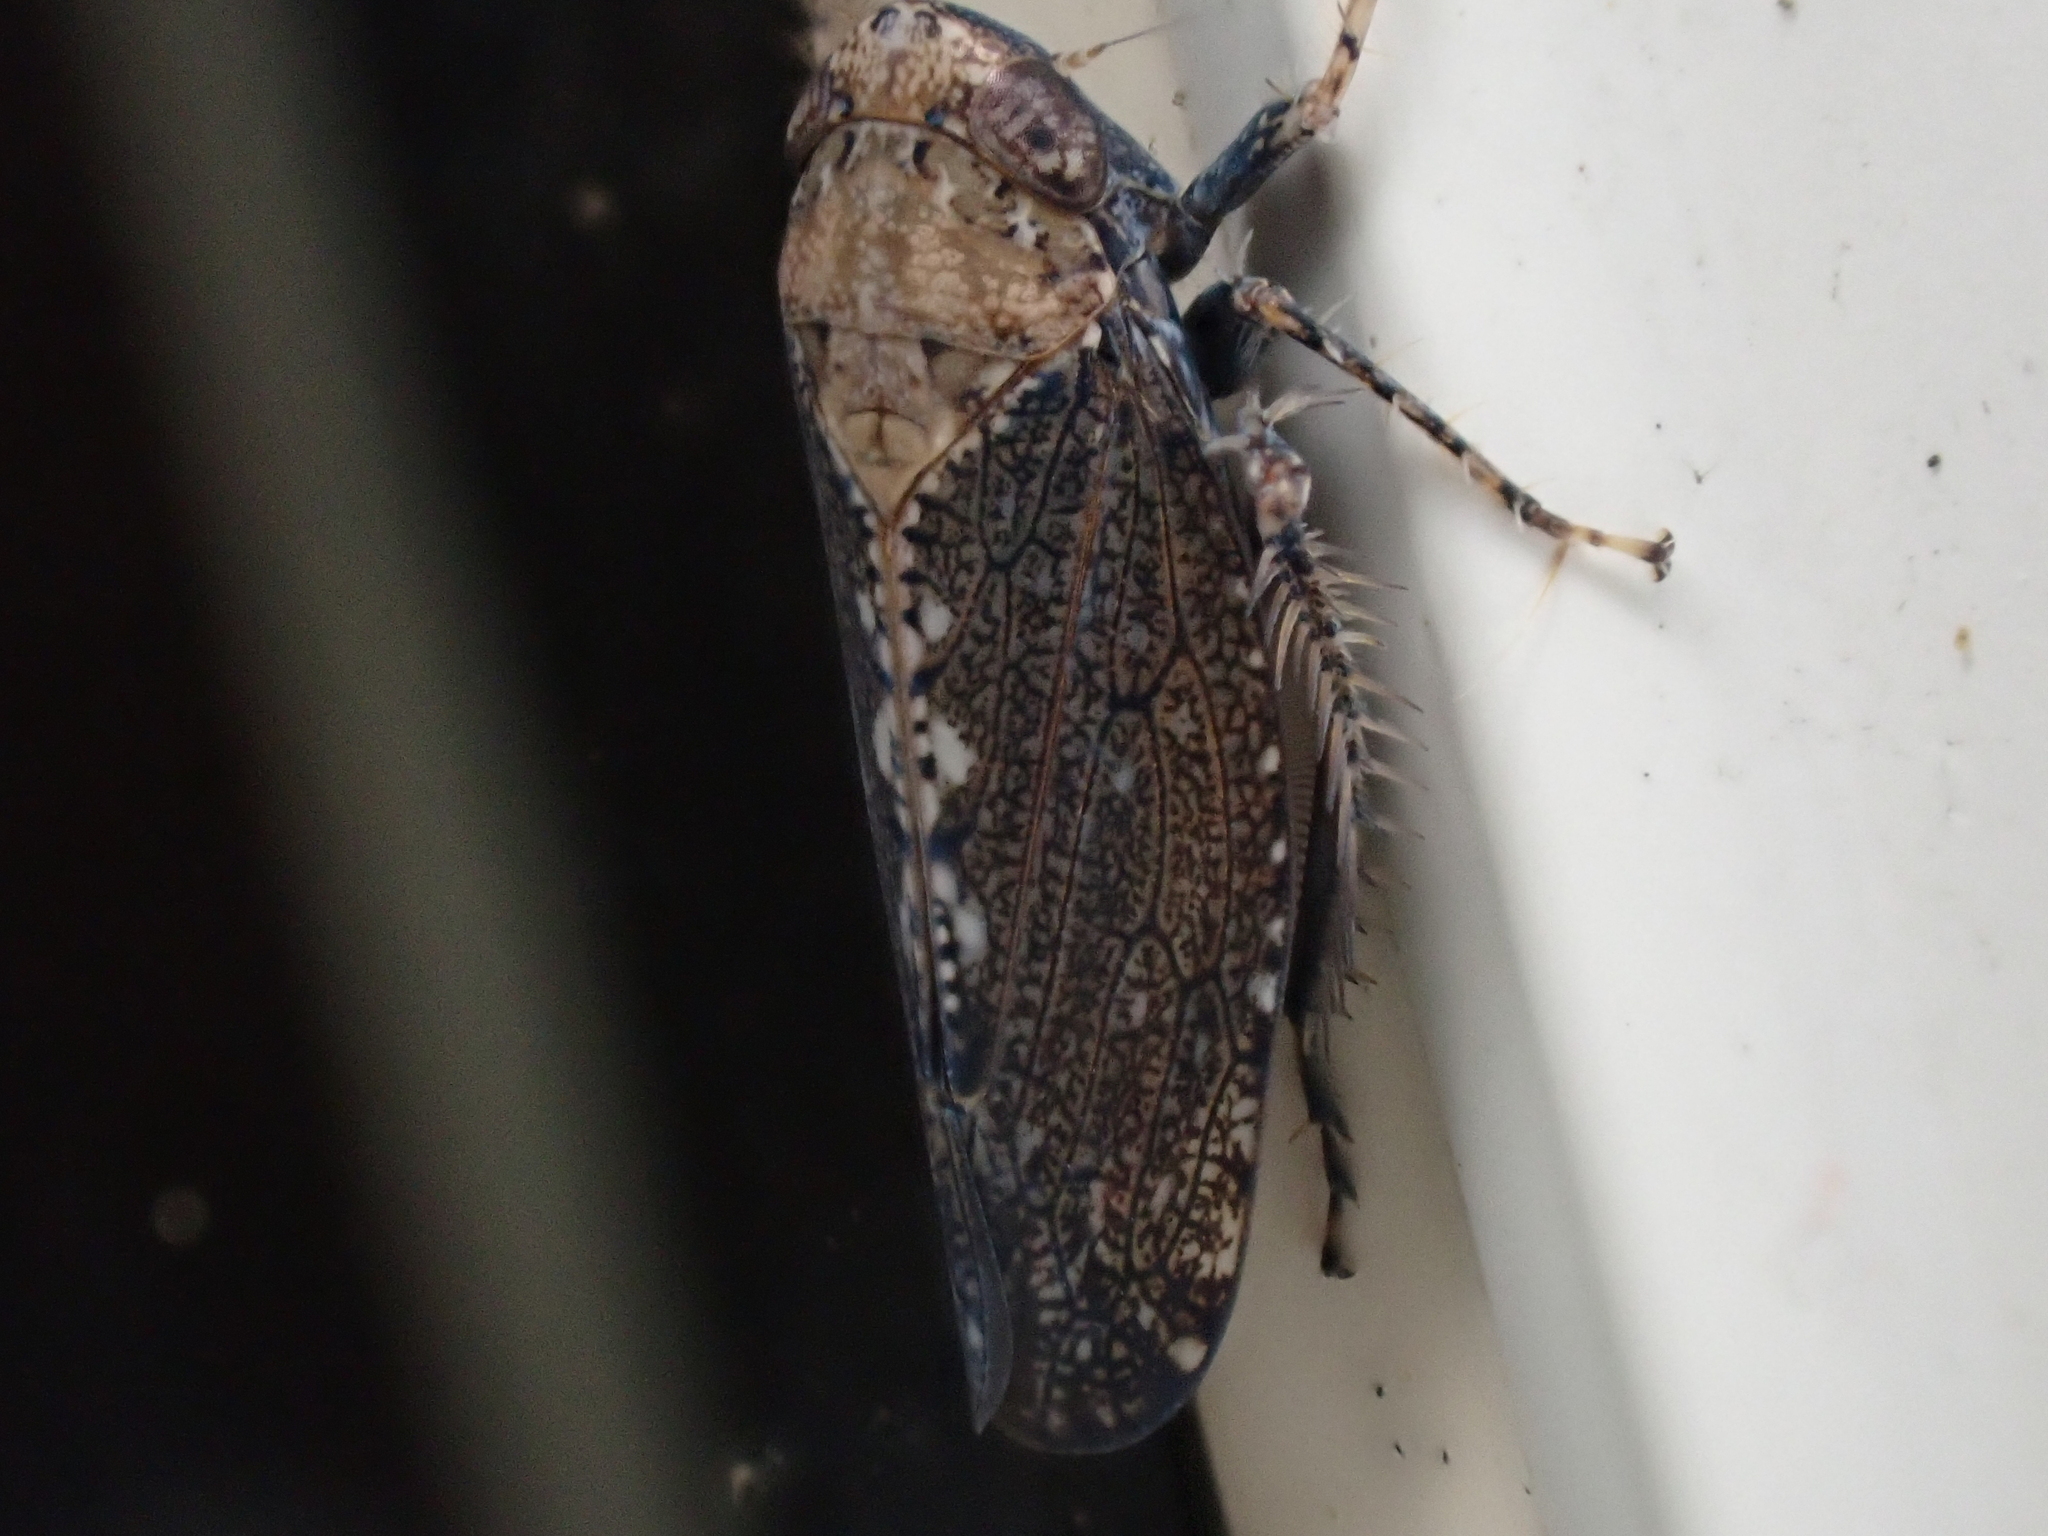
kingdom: Animalia
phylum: Arthropoda
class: Insecta
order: Hemiptera
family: Cicadellidae
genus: Excultanus
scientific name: Excultanus excultus
